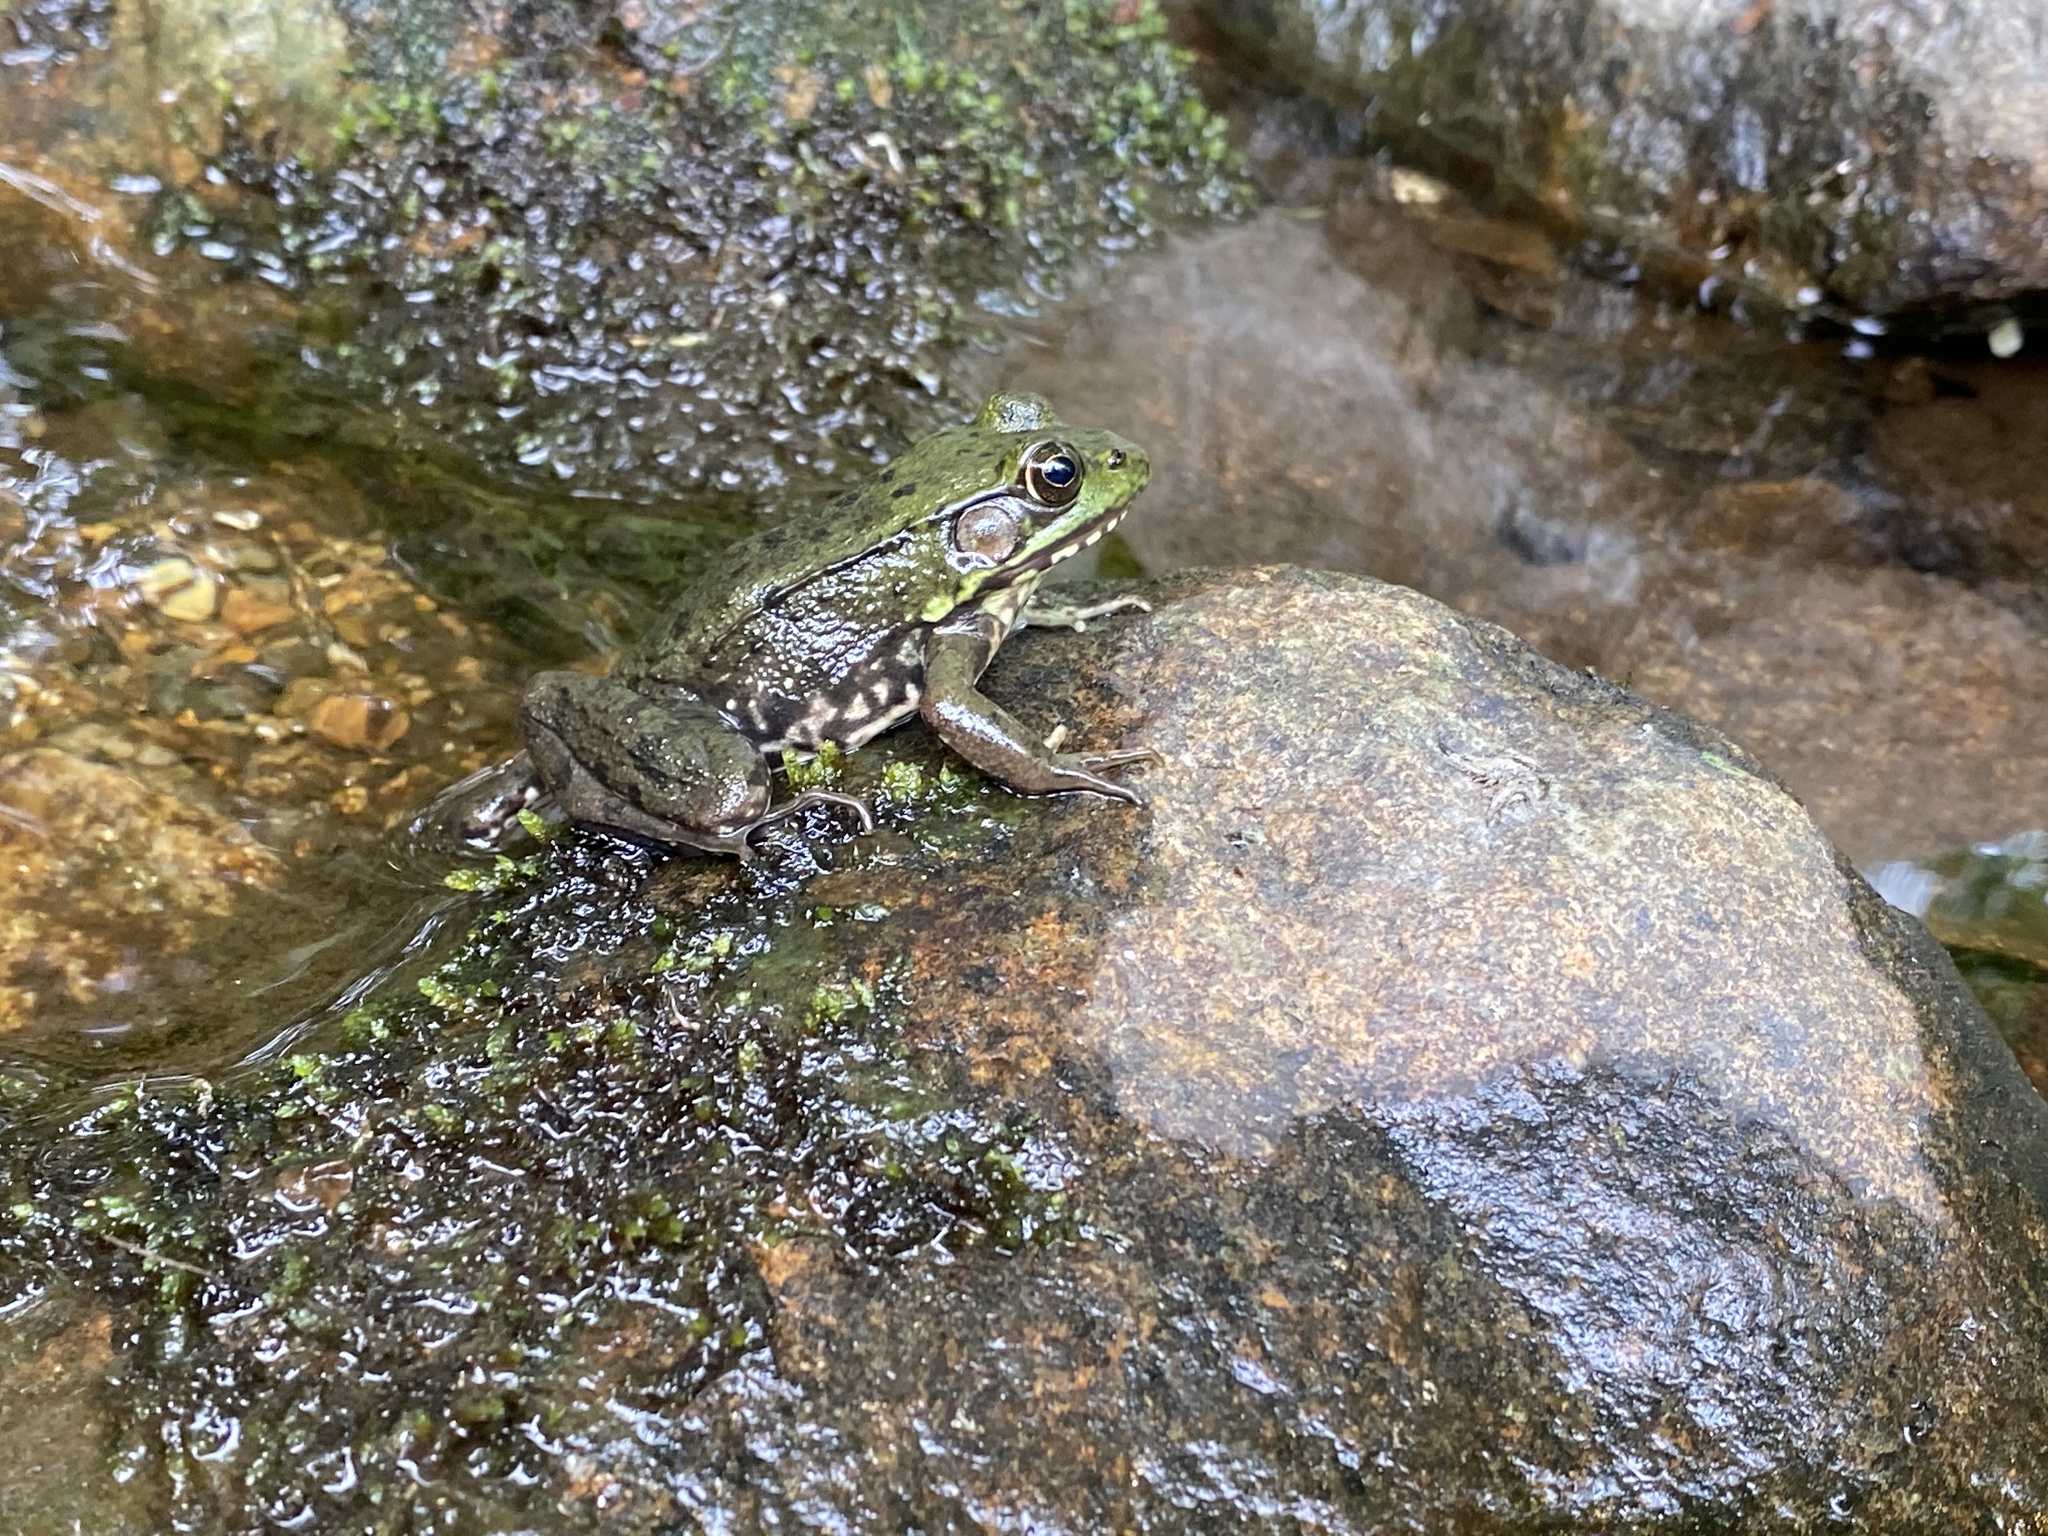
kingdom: Animalia
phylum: Chordata
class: Amphibia
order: Anura
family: Ranidae
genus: Lithobates
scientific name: Lithobates clamitans
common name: Green frog
